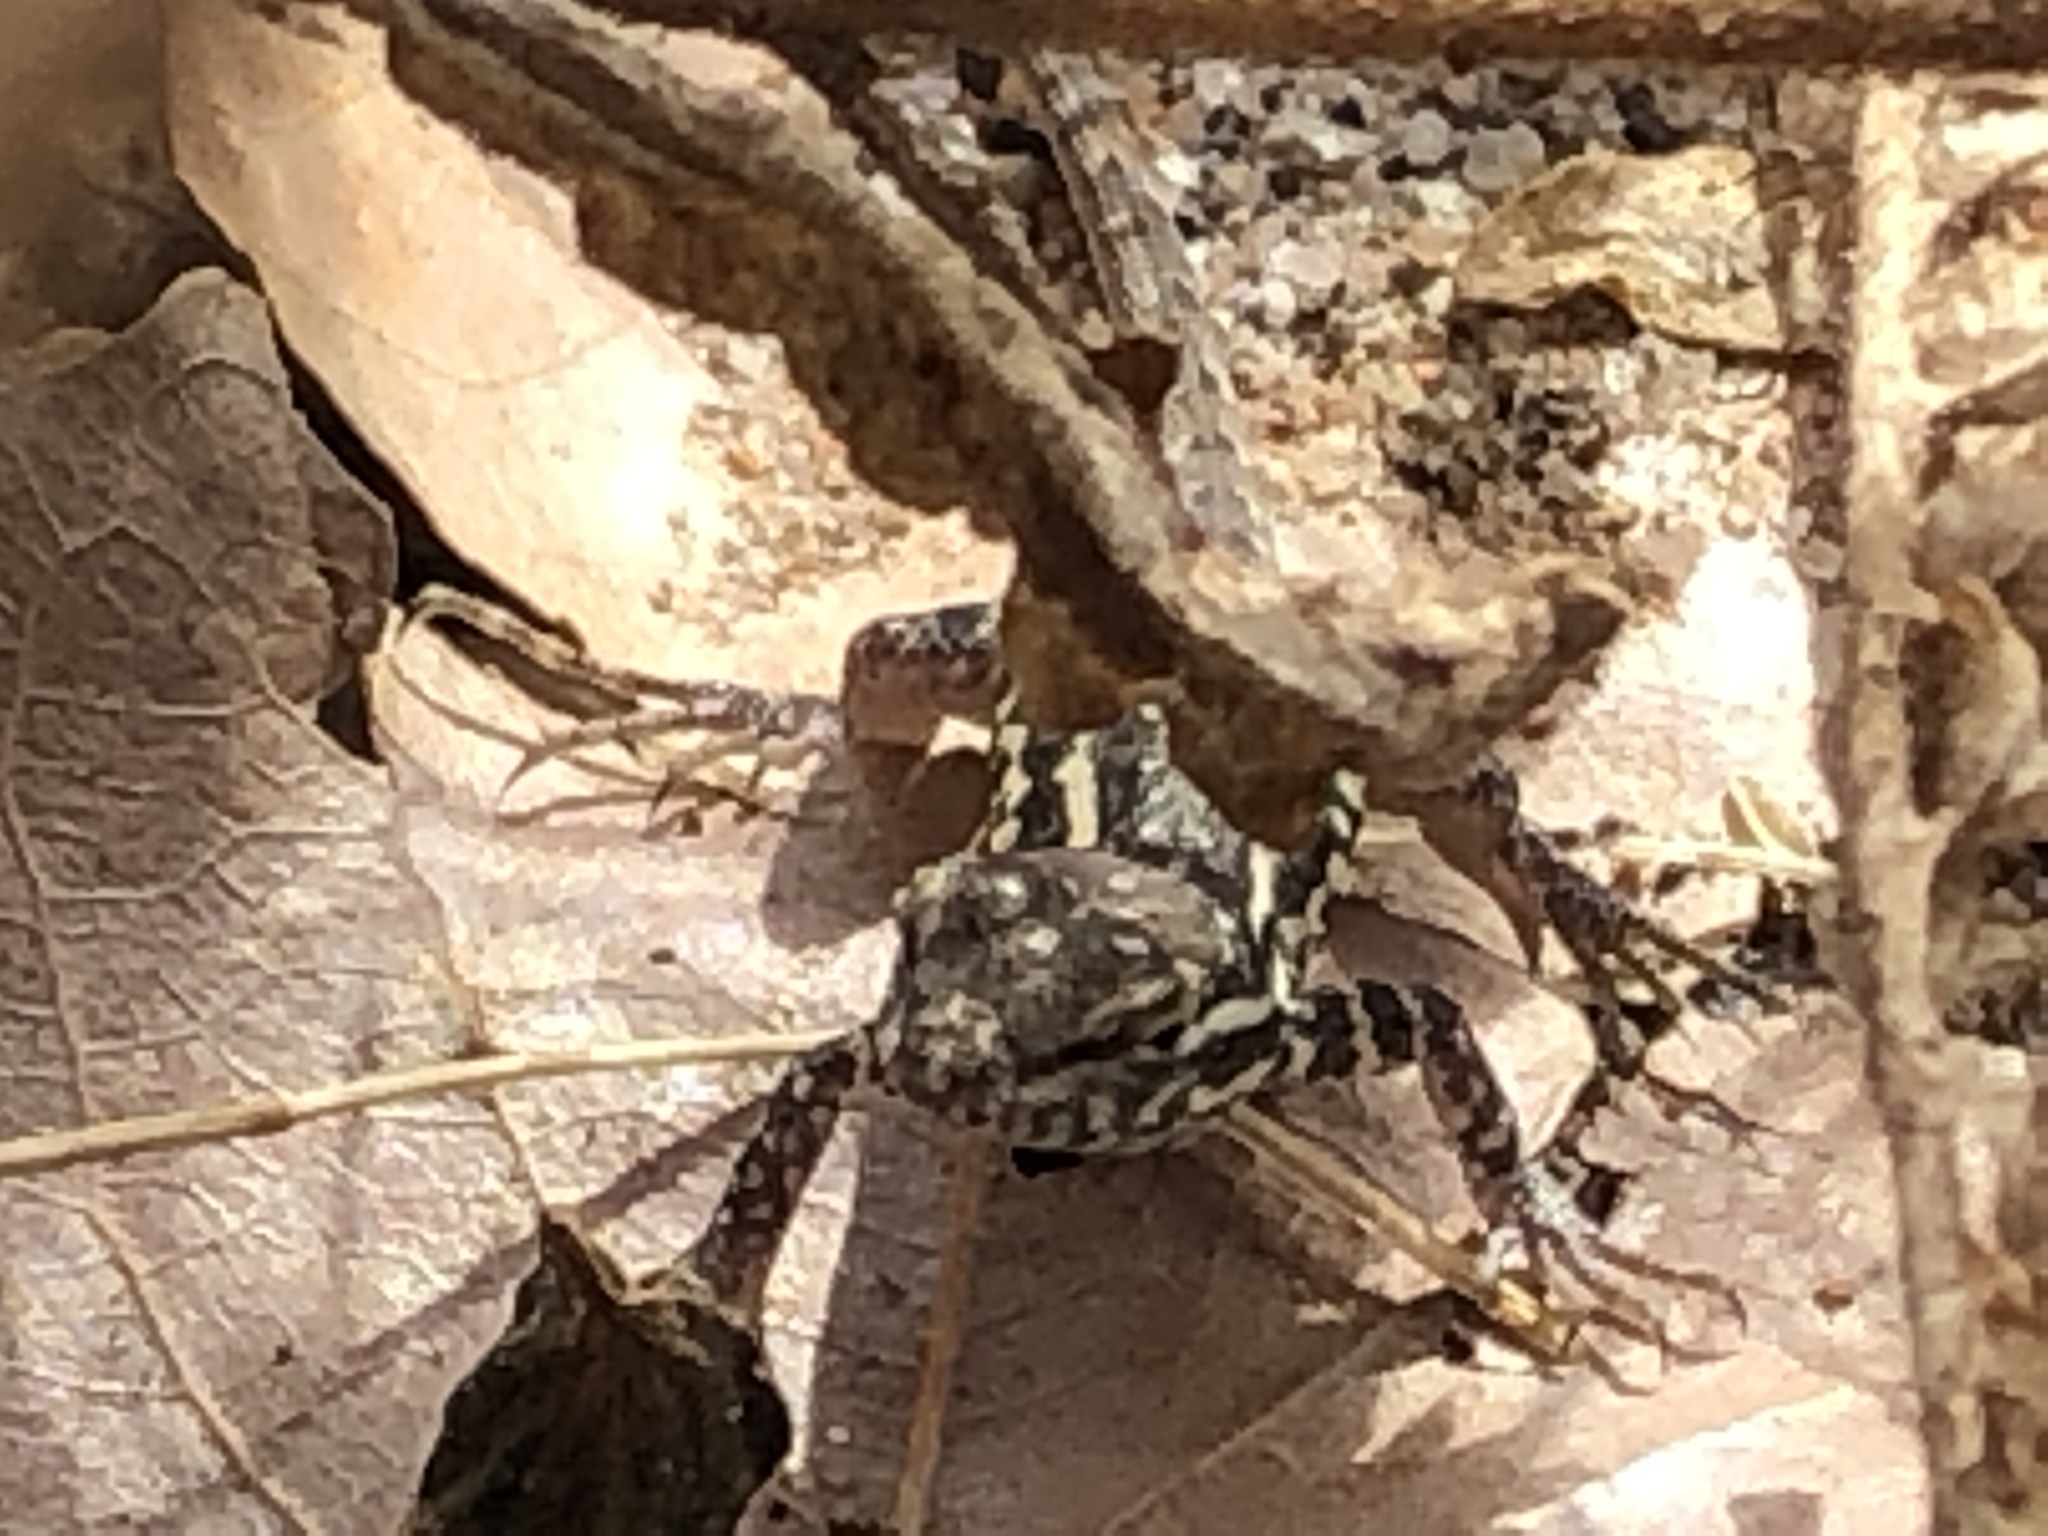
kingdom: Animalia
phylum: Chordata
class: Squamata
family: Phrynosomatidae
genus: Uta
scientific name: Uta stansburiana
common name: Side-blotched lizard
